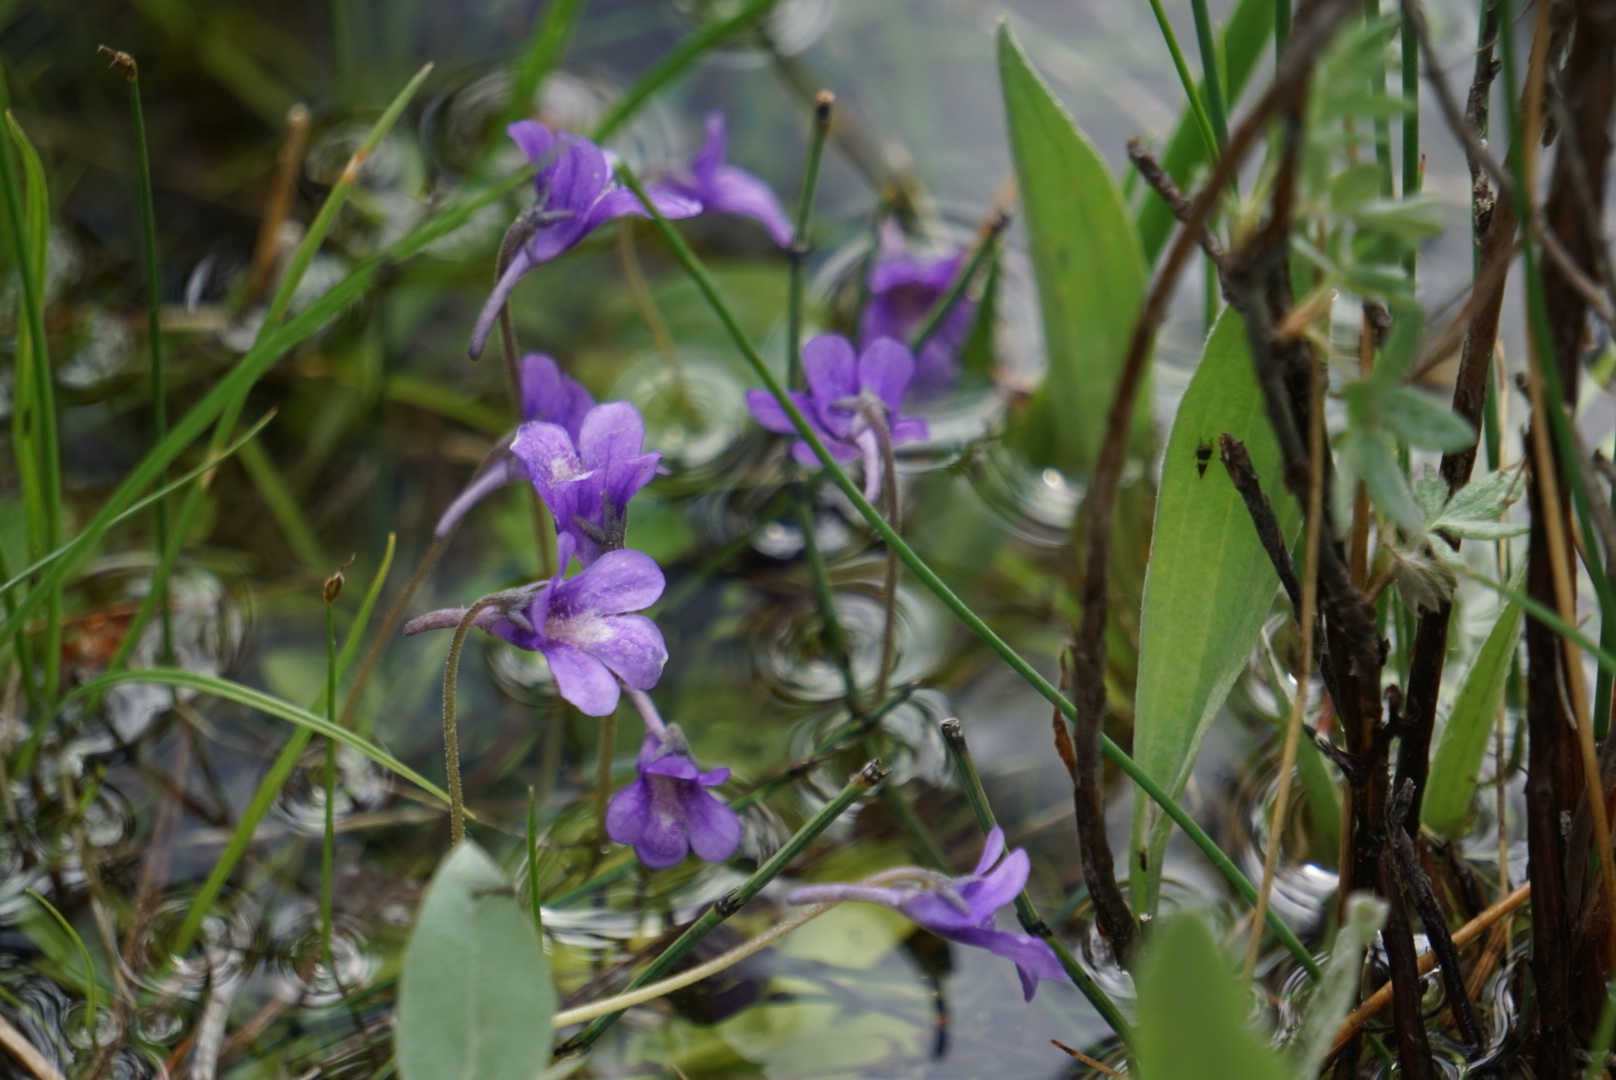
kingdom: Plantae
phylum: Tracheophyta
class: Magnoliopsida
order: Lamiales
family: Lentibulariaceae
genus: Pinguicula
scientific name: Pinguicula vulgaris
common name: Common butterwort
